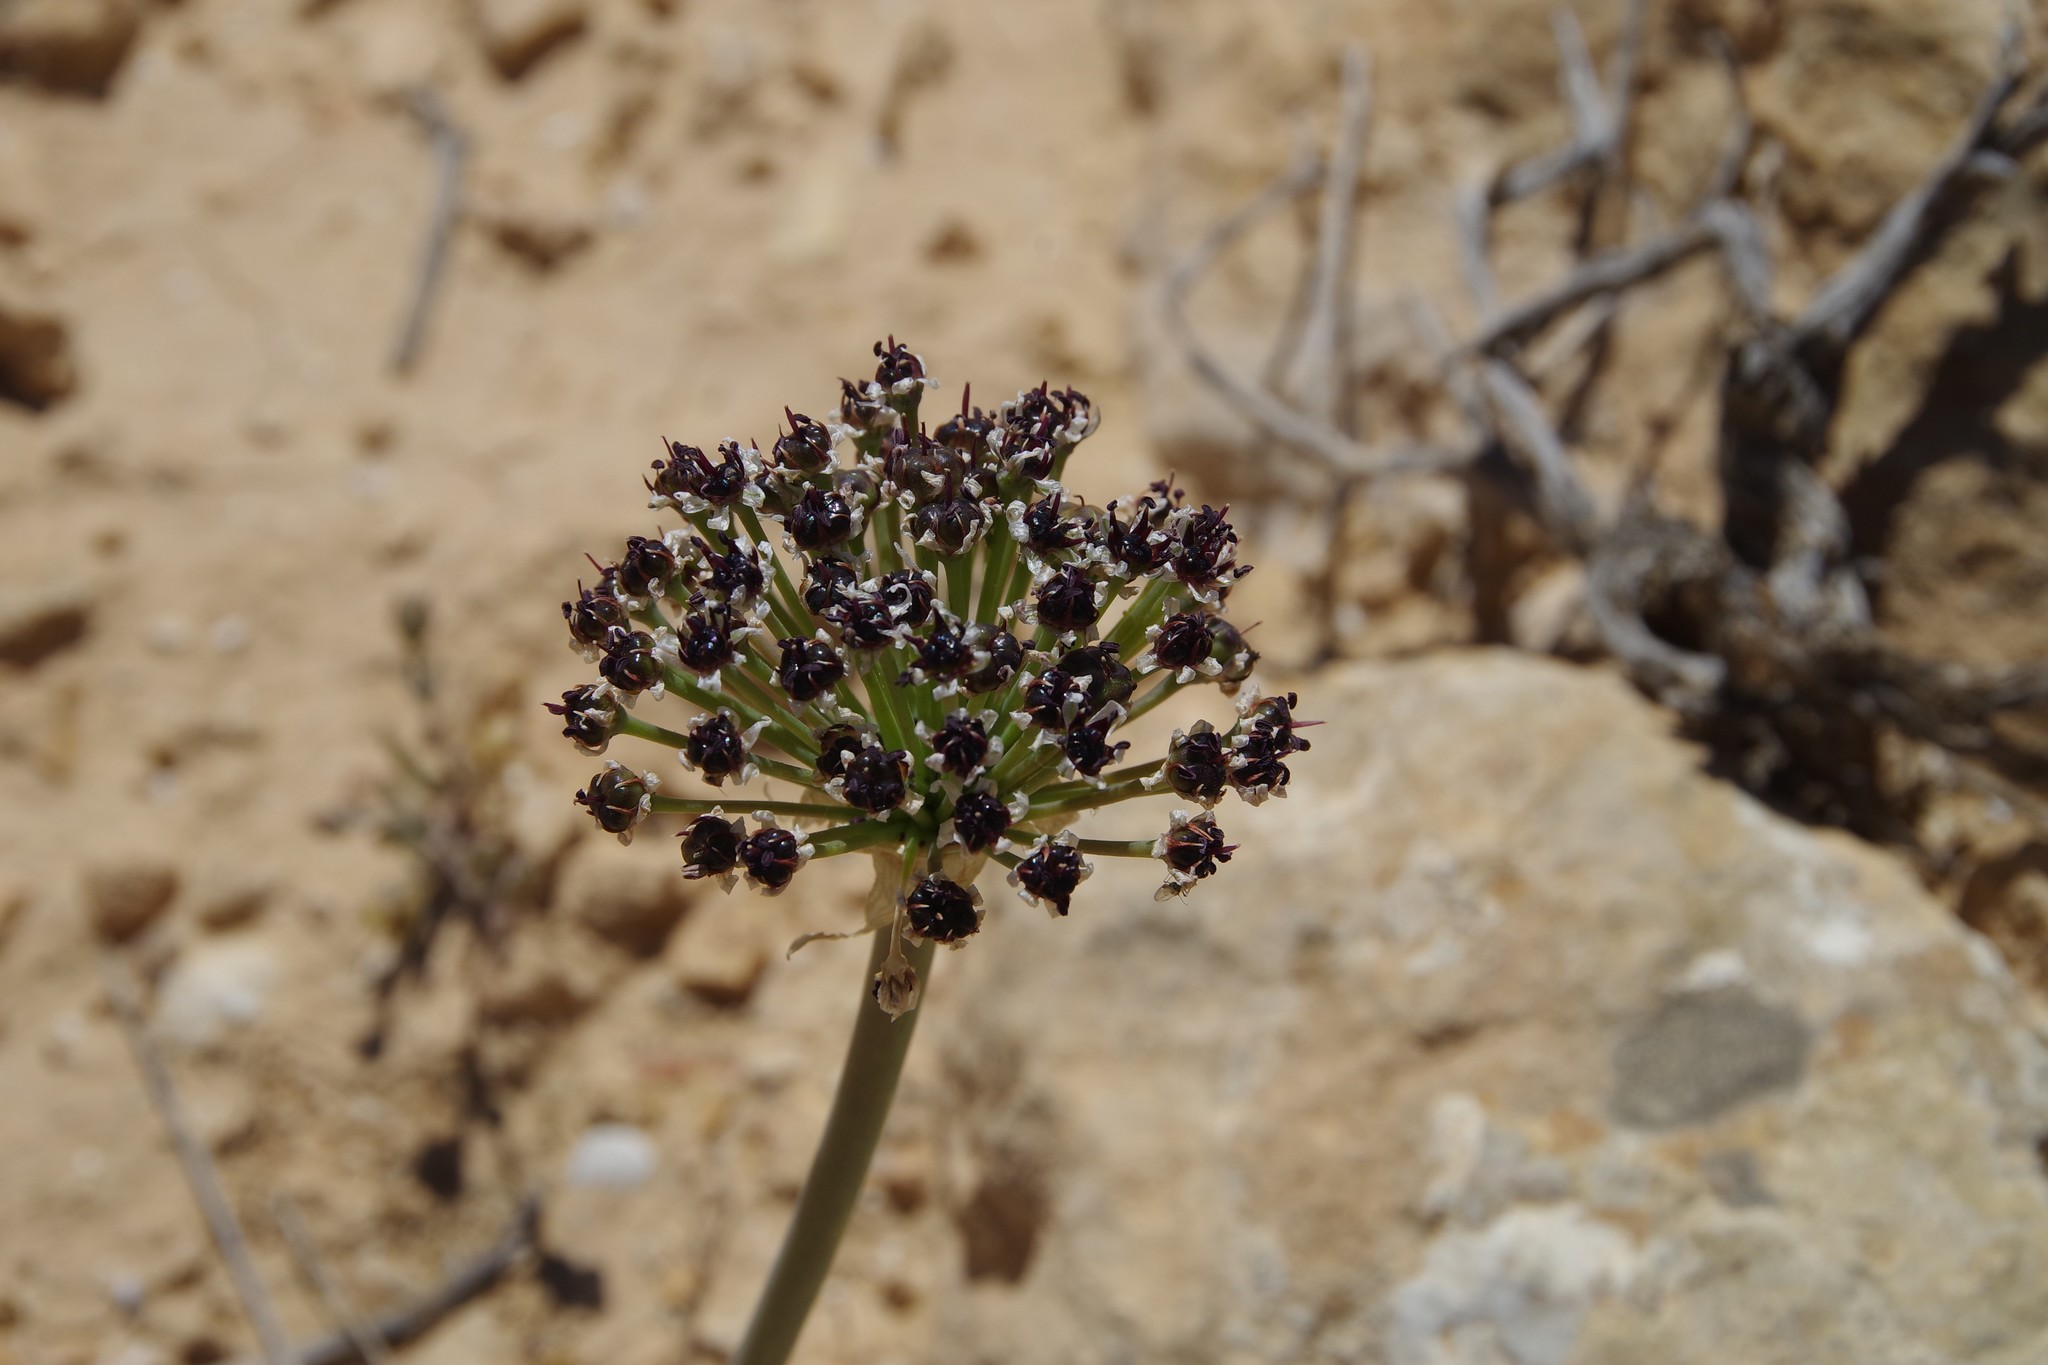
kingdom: Plantae
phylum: Tracheophyta
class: Liliopsida
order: Asparagales
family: Amaryllidaceae
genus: Allium
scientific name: Allium rothii
